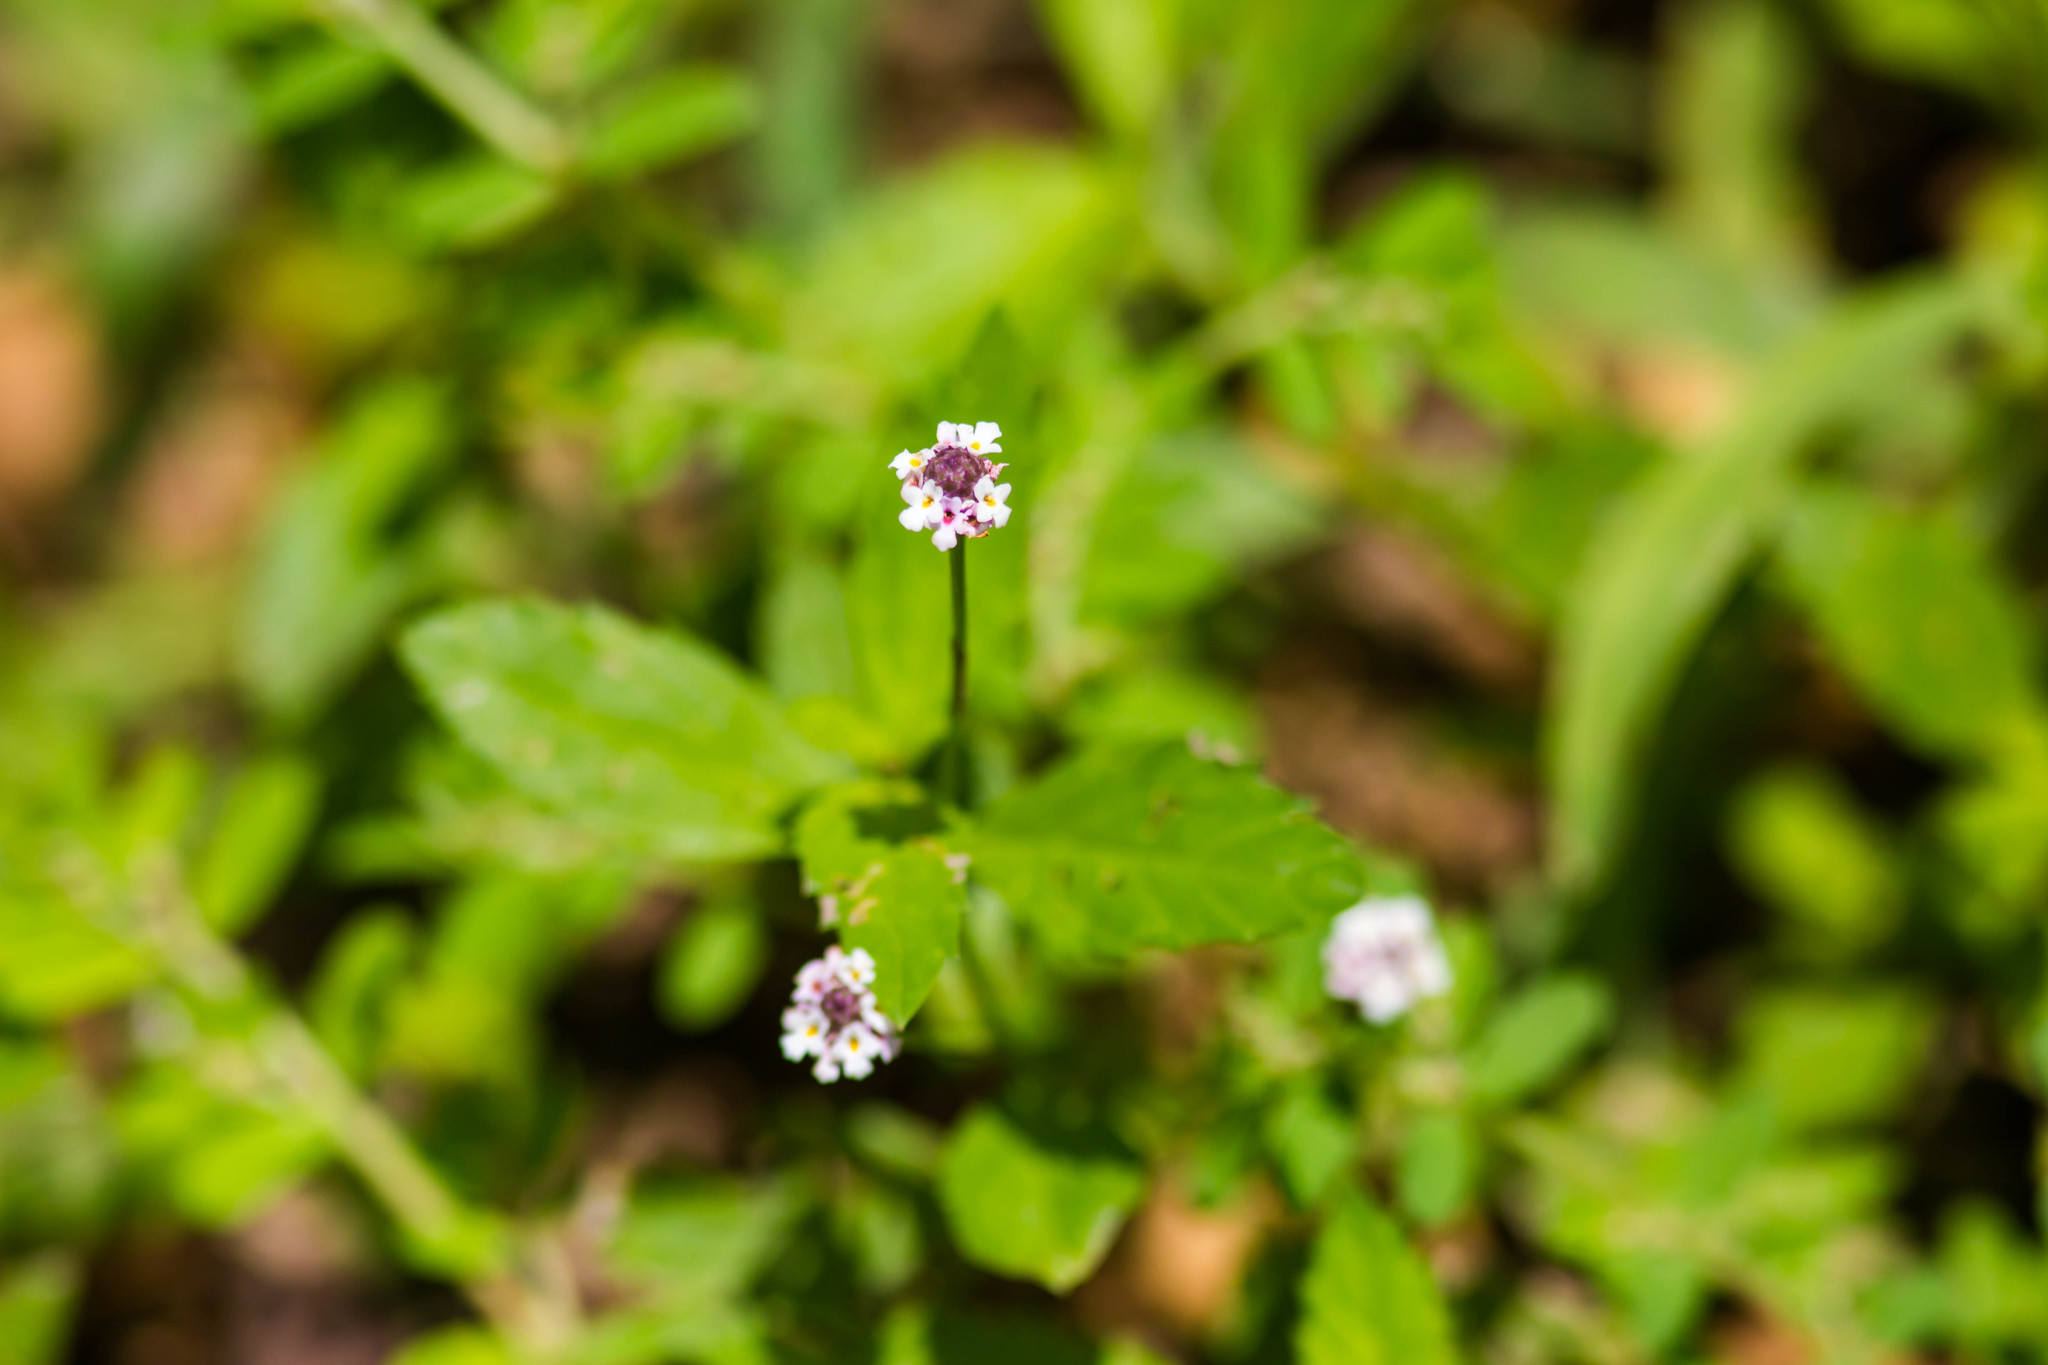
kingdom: Plantae
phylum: Tracheophyta
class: Magnoliopsida
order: Lamiales
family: Verbenaceae
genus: Phyla
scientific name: Phyla lanceolata
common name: Northern fogfruit
